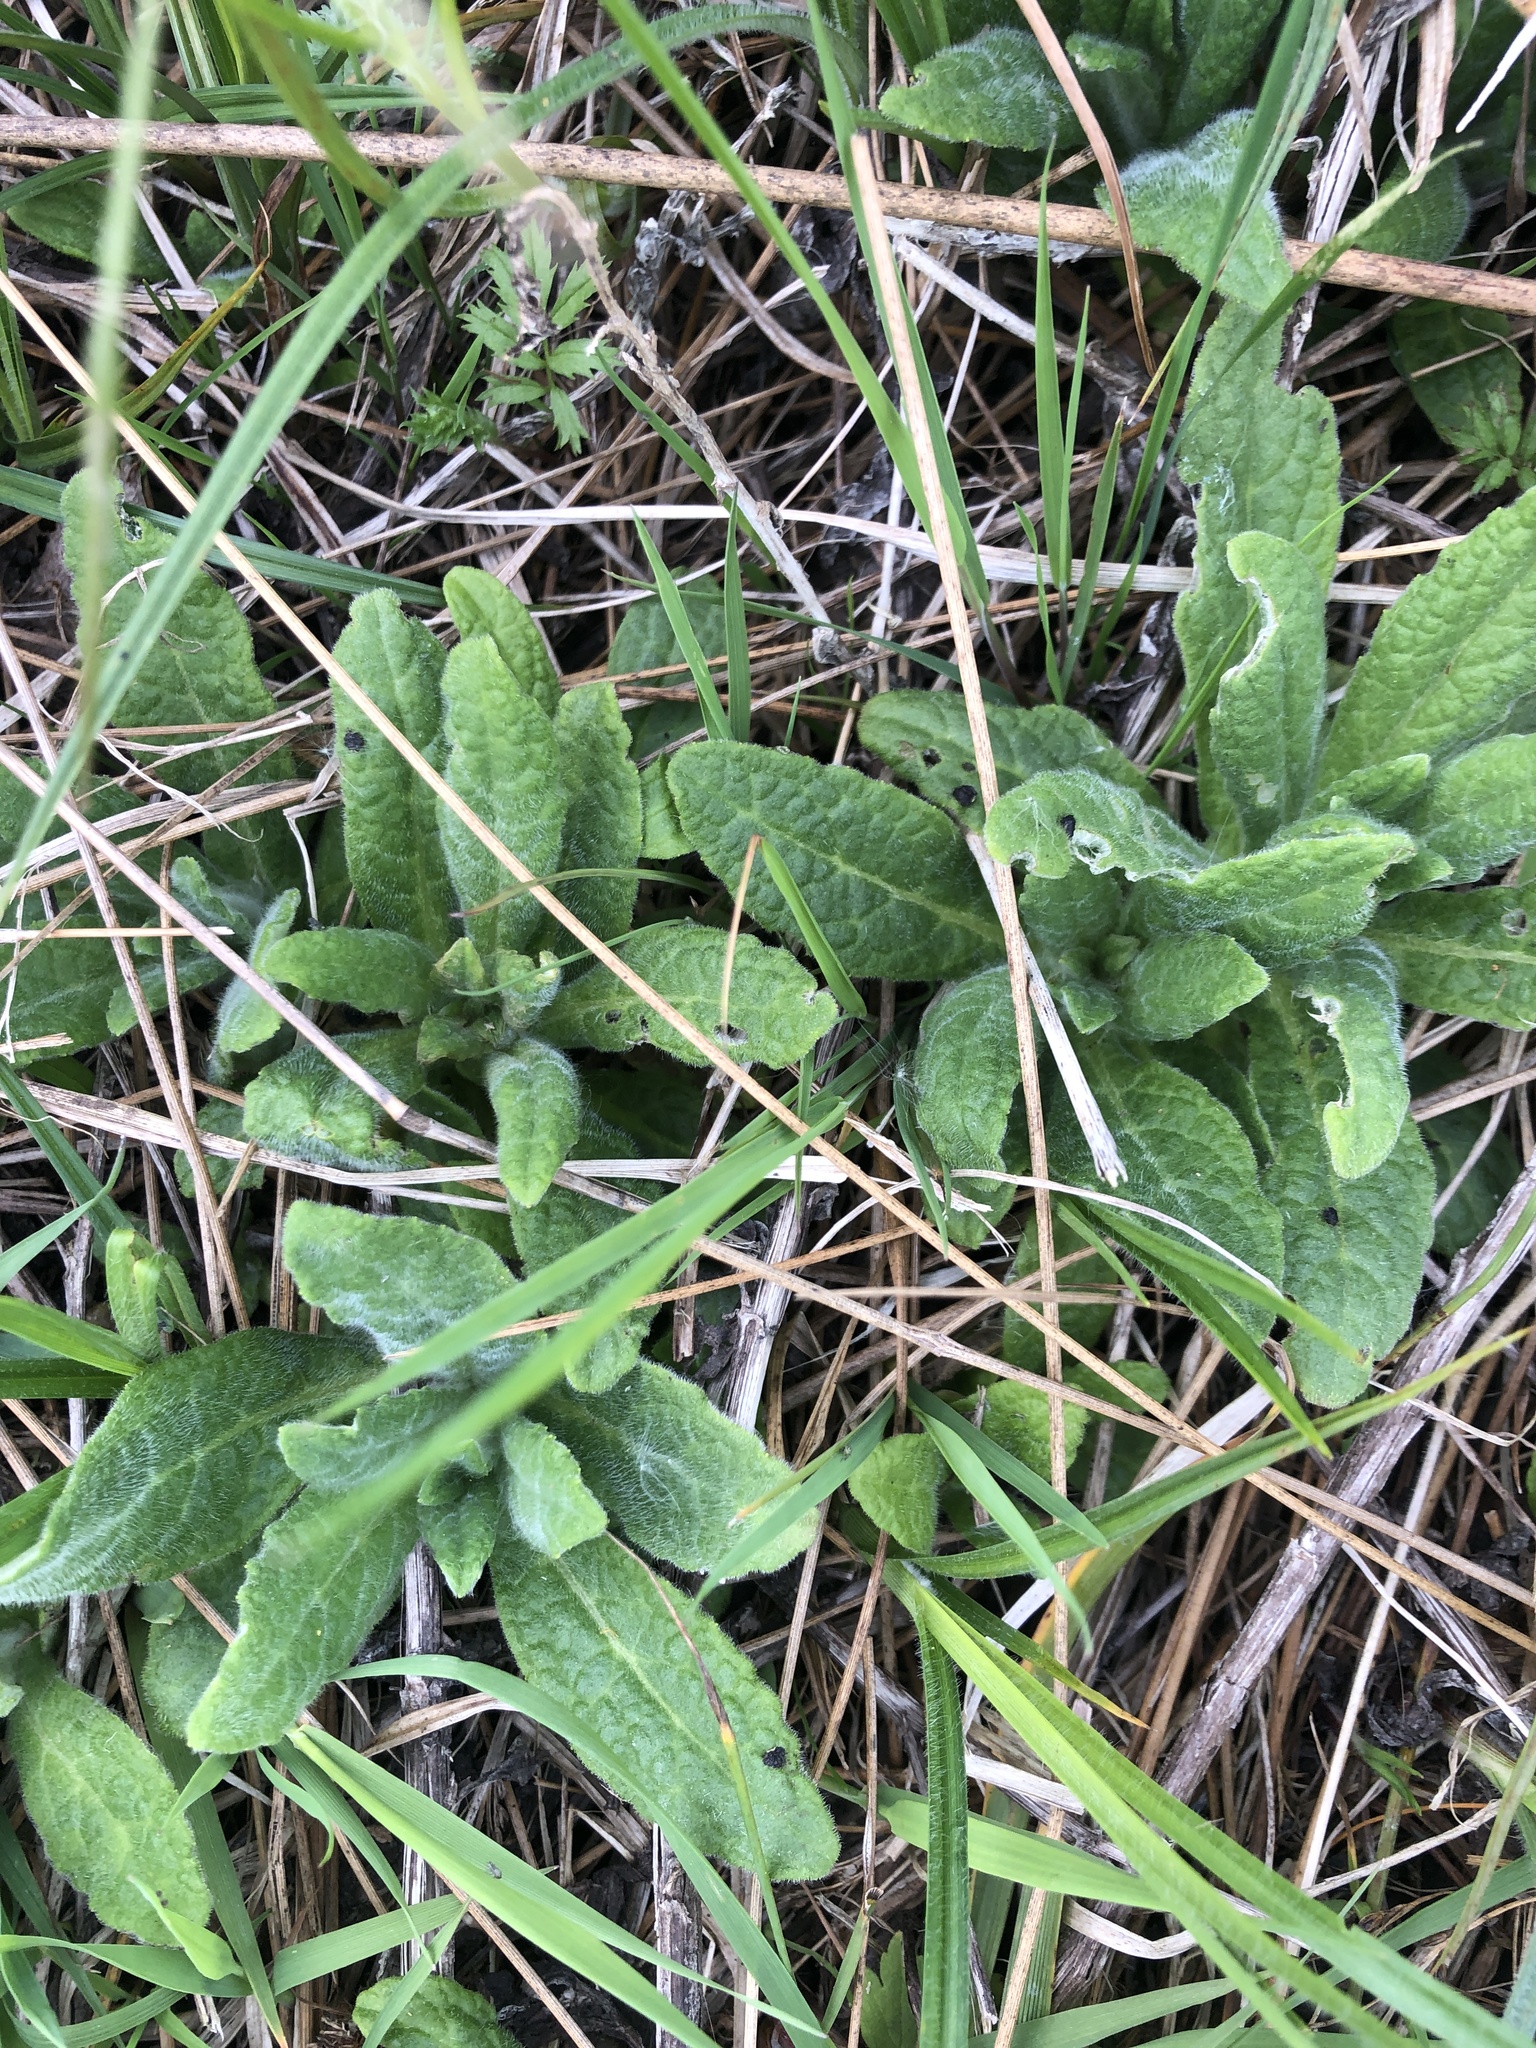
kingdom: Plantae
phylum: Tracheophyta
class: Magnoliopsida
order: Asterales
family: Asteraceae
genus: Pulicaria
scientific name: Pulicaria dysenterica
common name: Common fleabane
